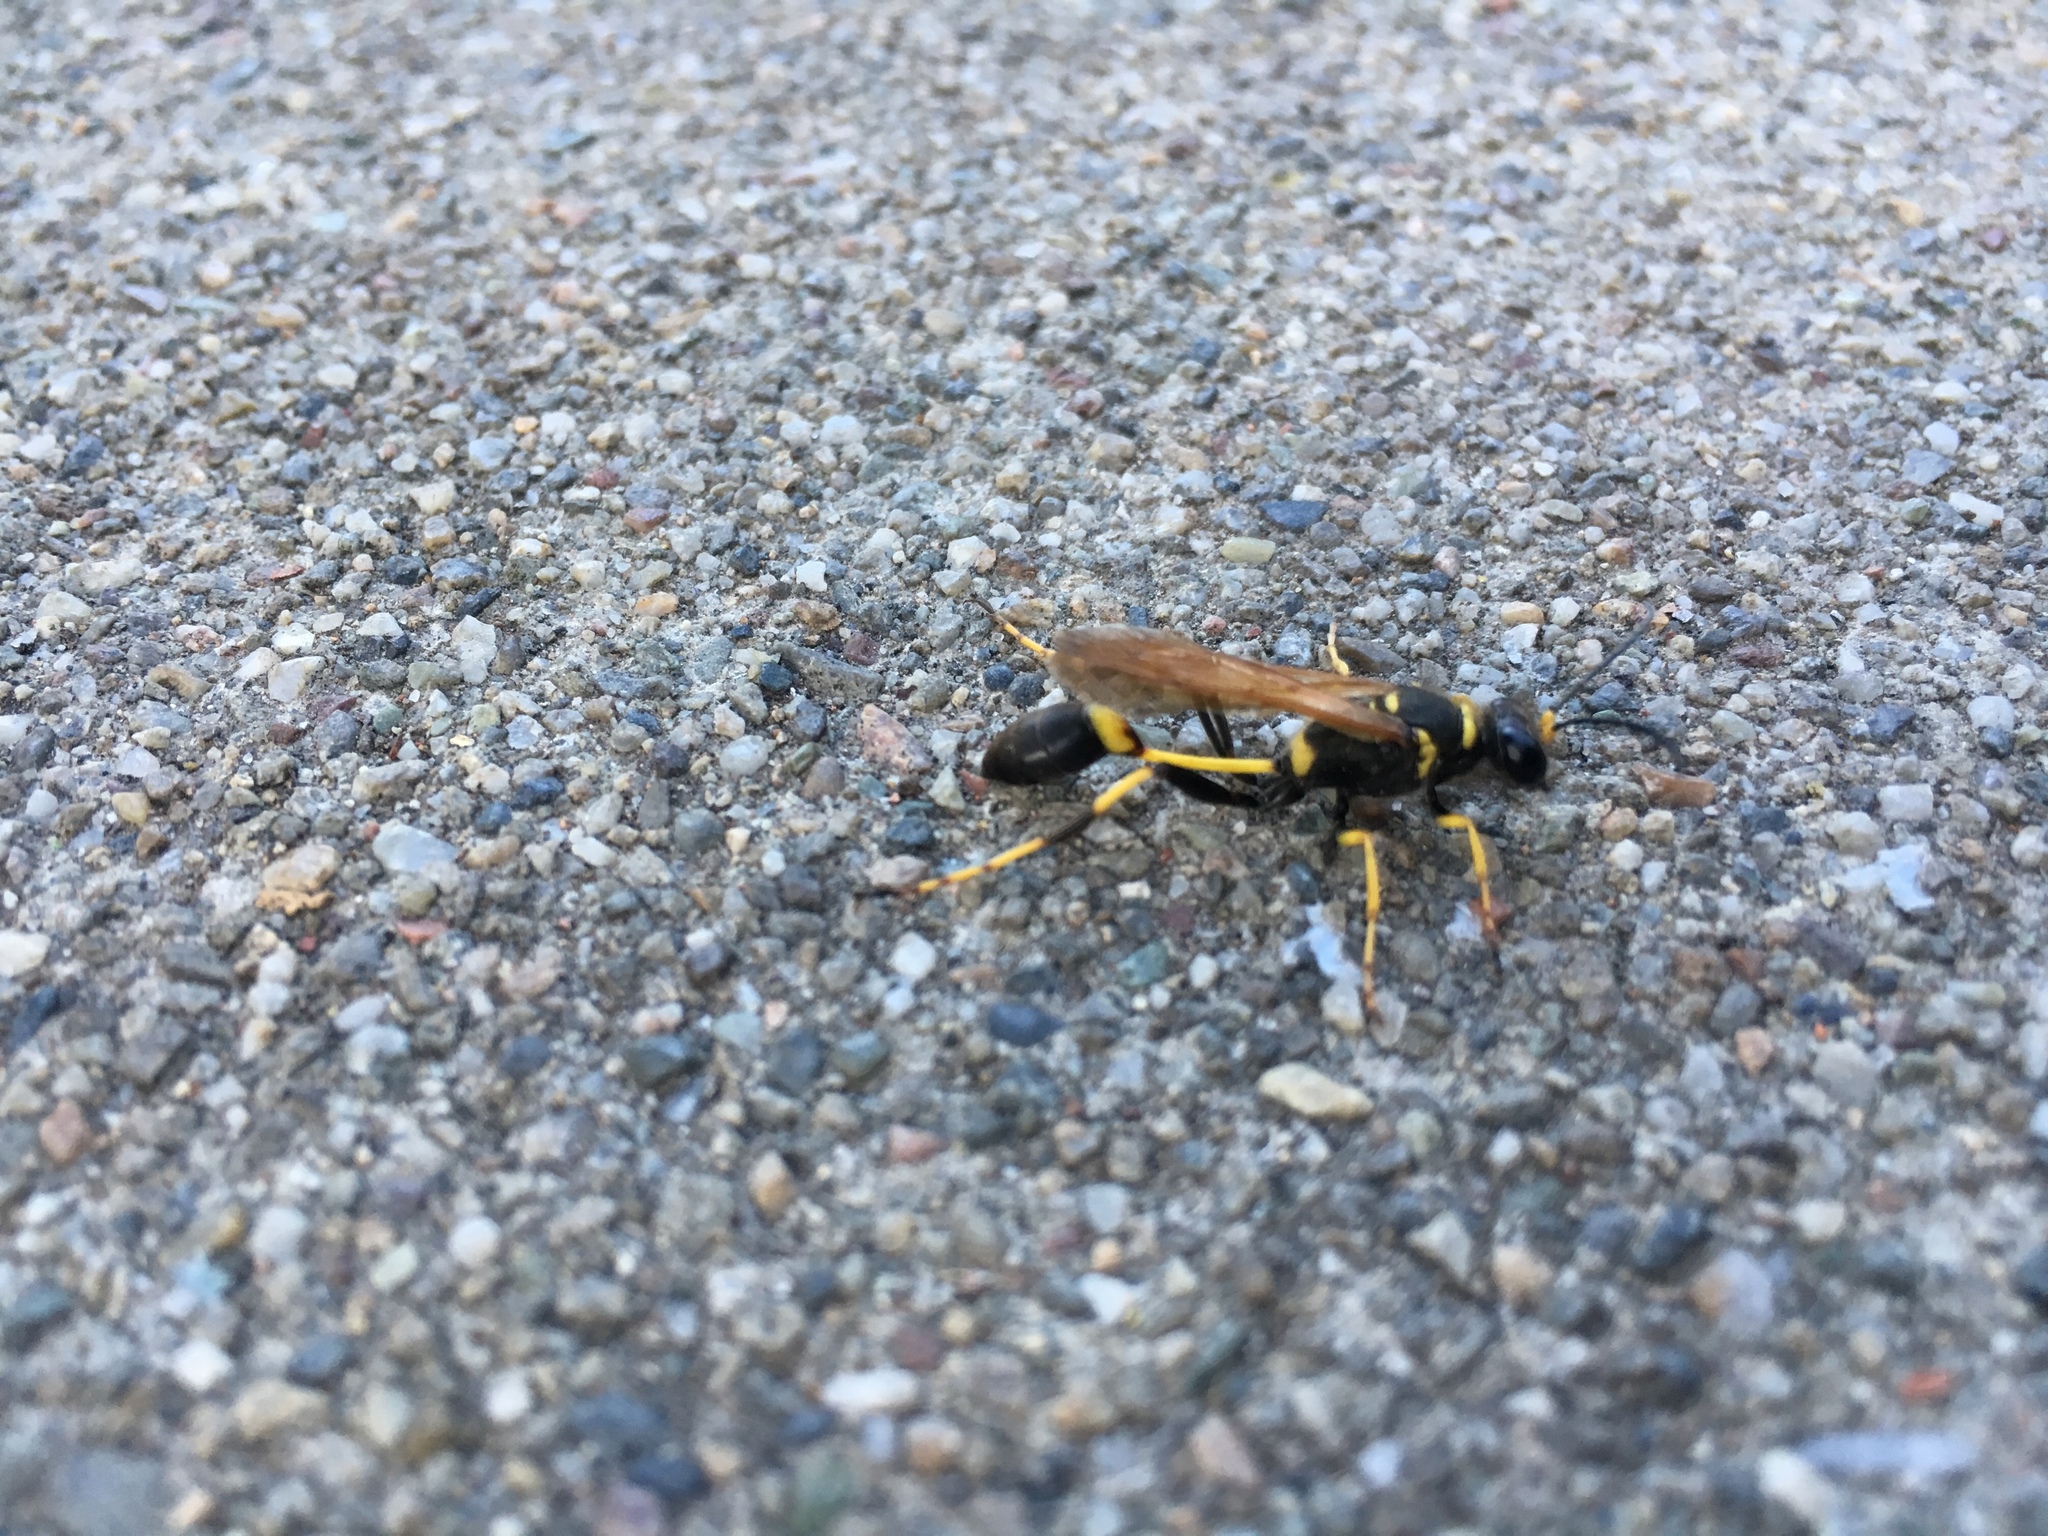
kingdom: Animalia
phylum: Arthropoda
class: Insecta
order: Hymenoptera
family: Sphecidae
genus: Sceliphron
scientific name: Sceliphron caementarium
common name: Mud dauber
